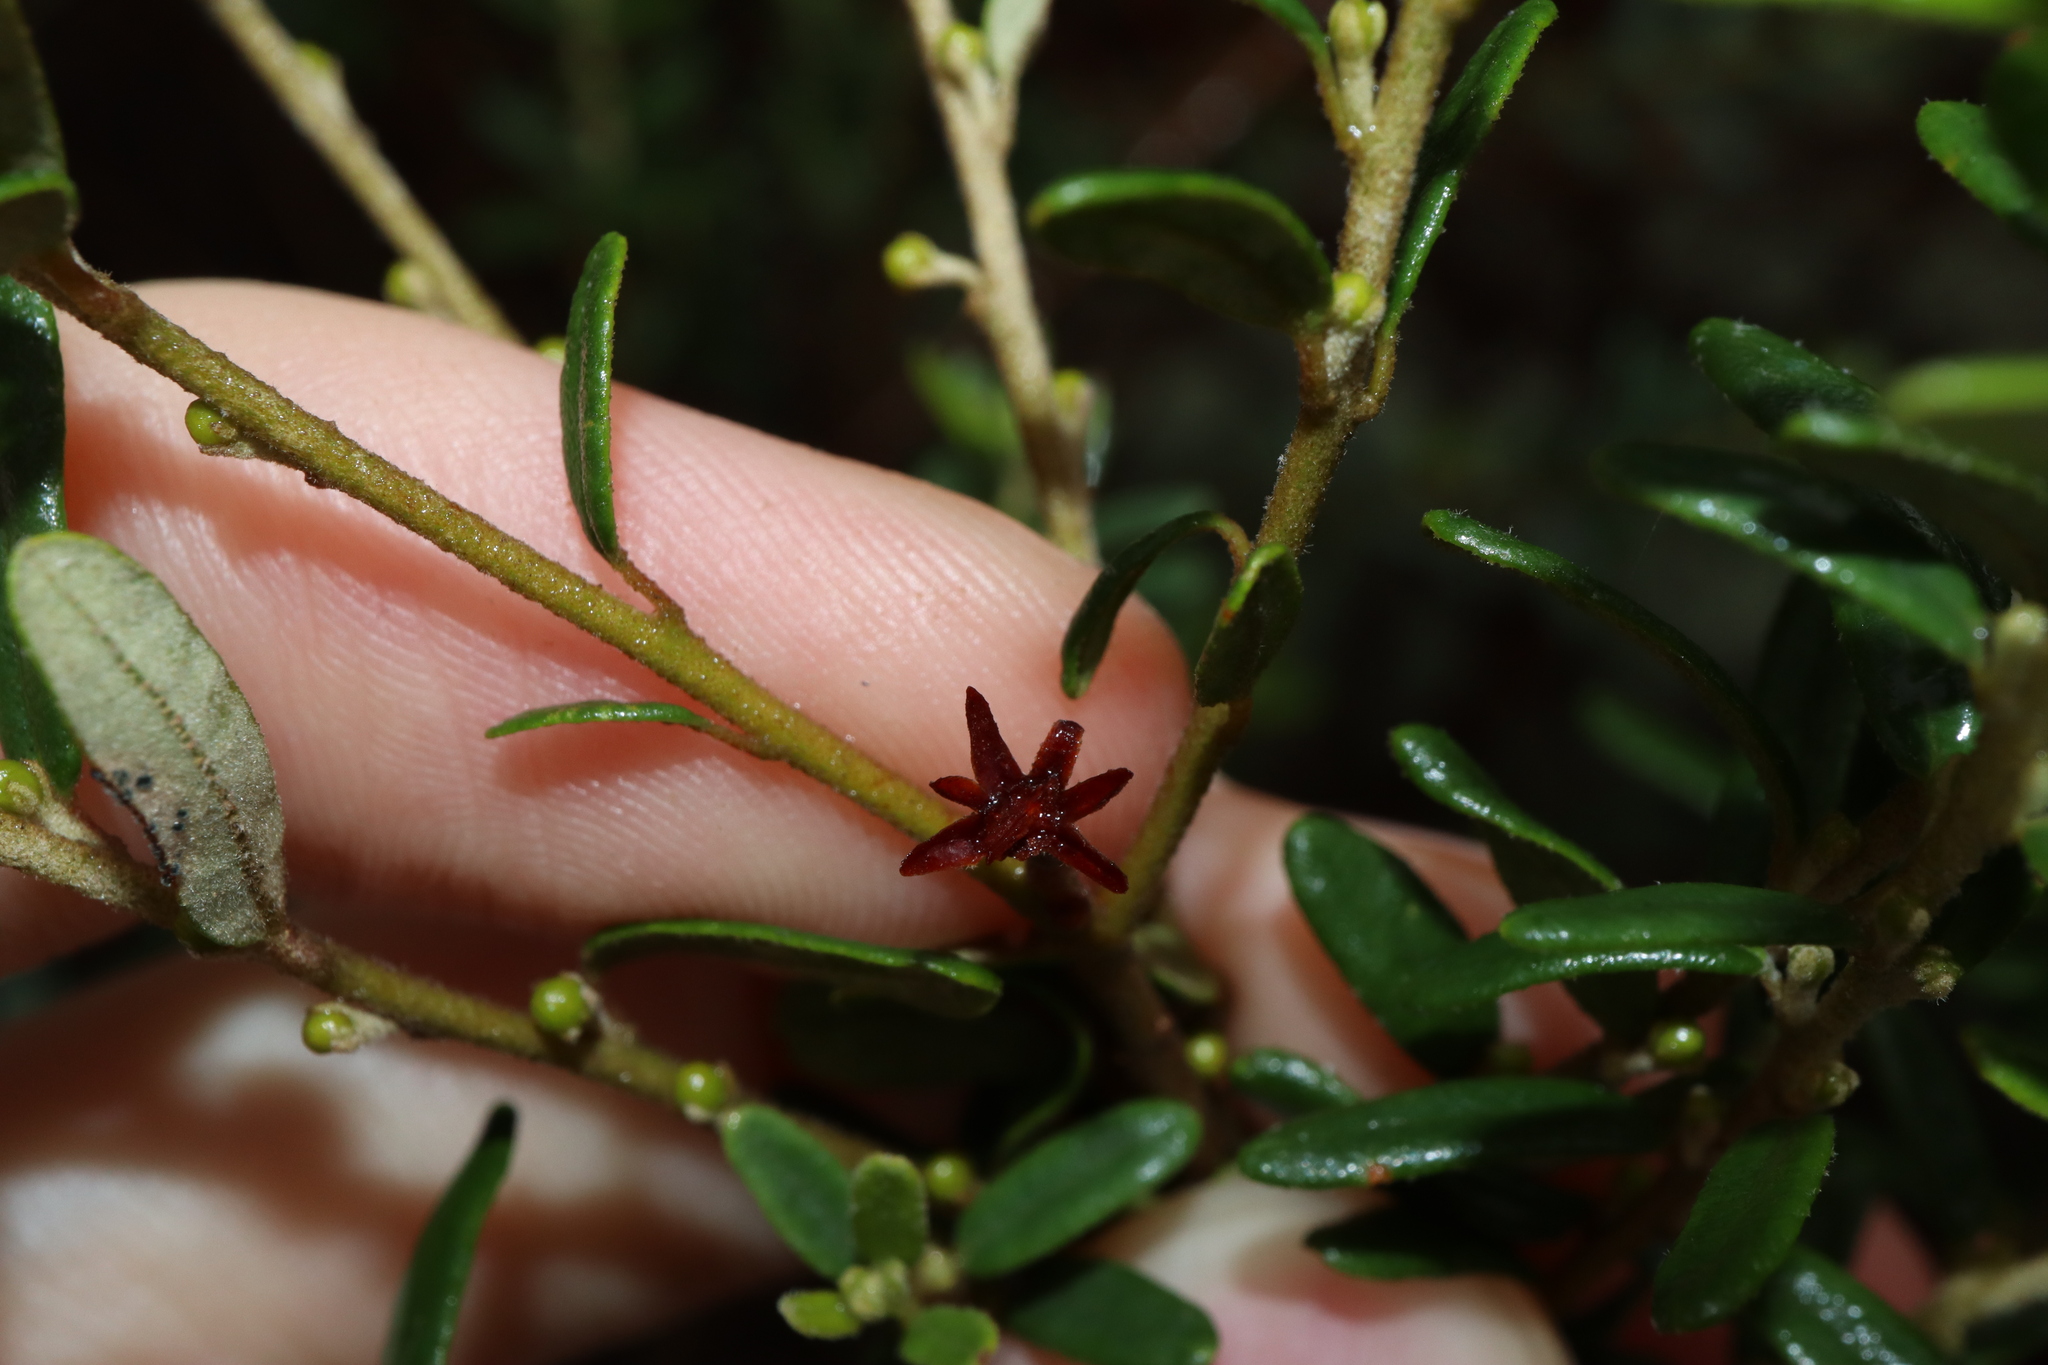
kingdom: Plantae
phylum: Tracheophyta
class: Magnoliopsida
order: Malpighiales
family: Euphorbiaceae
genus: Bertya
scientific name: Bertya oblonga
